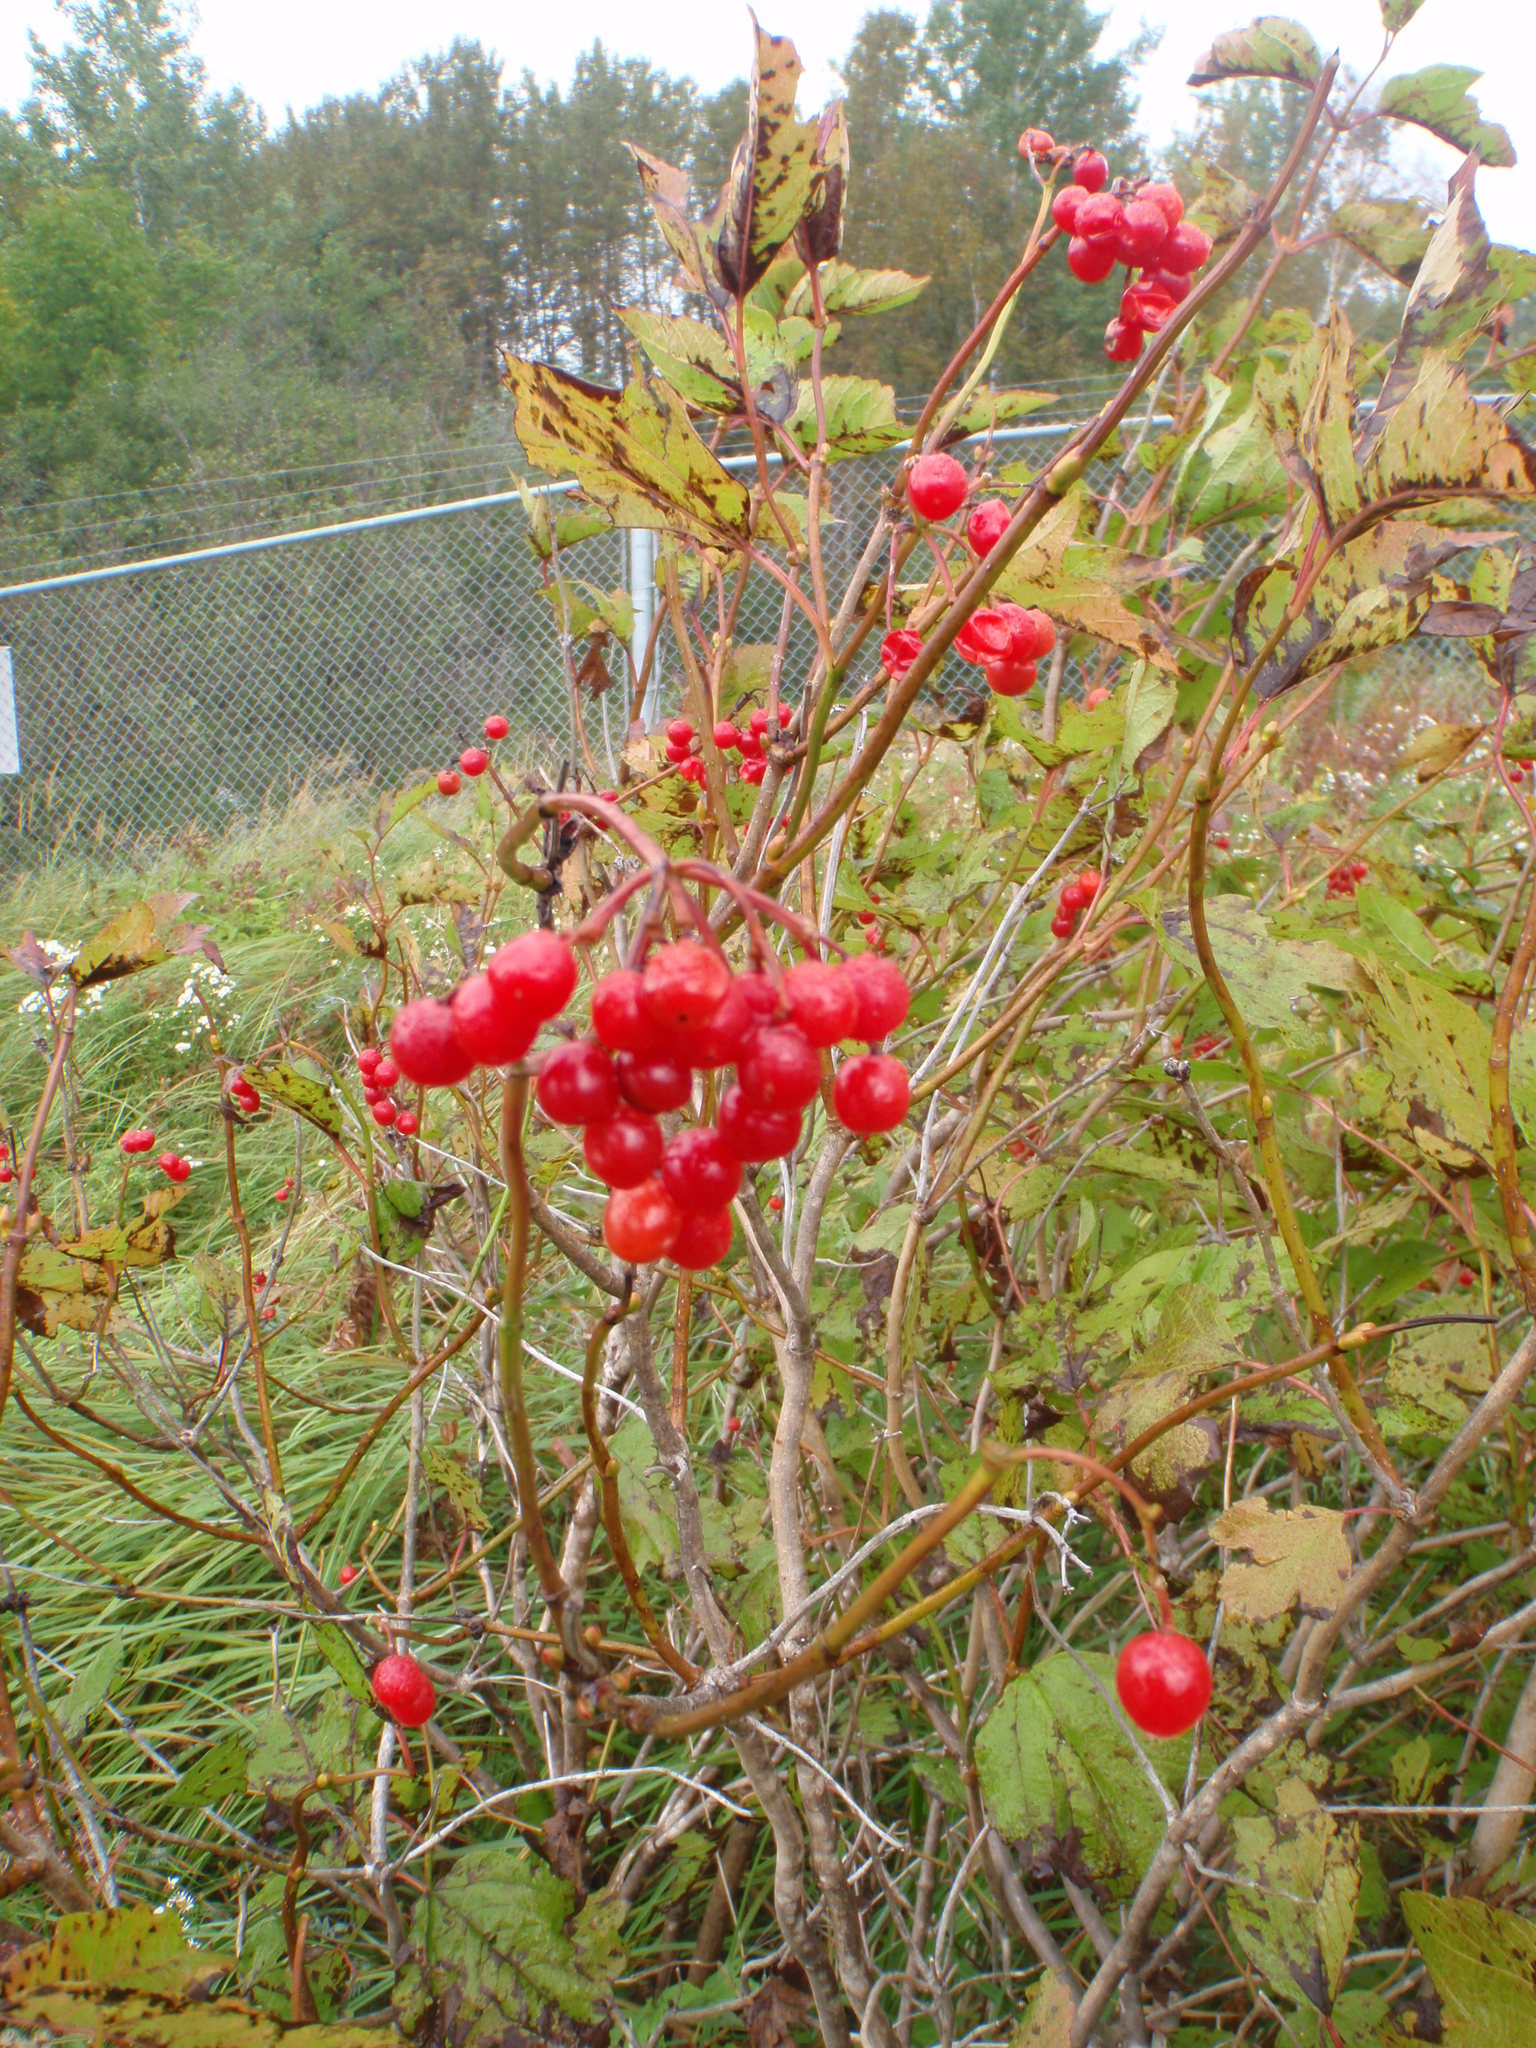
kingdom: Plantae
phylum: Tracheophyta
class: Magnoliopsida
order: Dipsacales
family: Viburnaceae
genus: Viburnum
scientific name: Viburnum trilobum
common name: American cranberrybush
